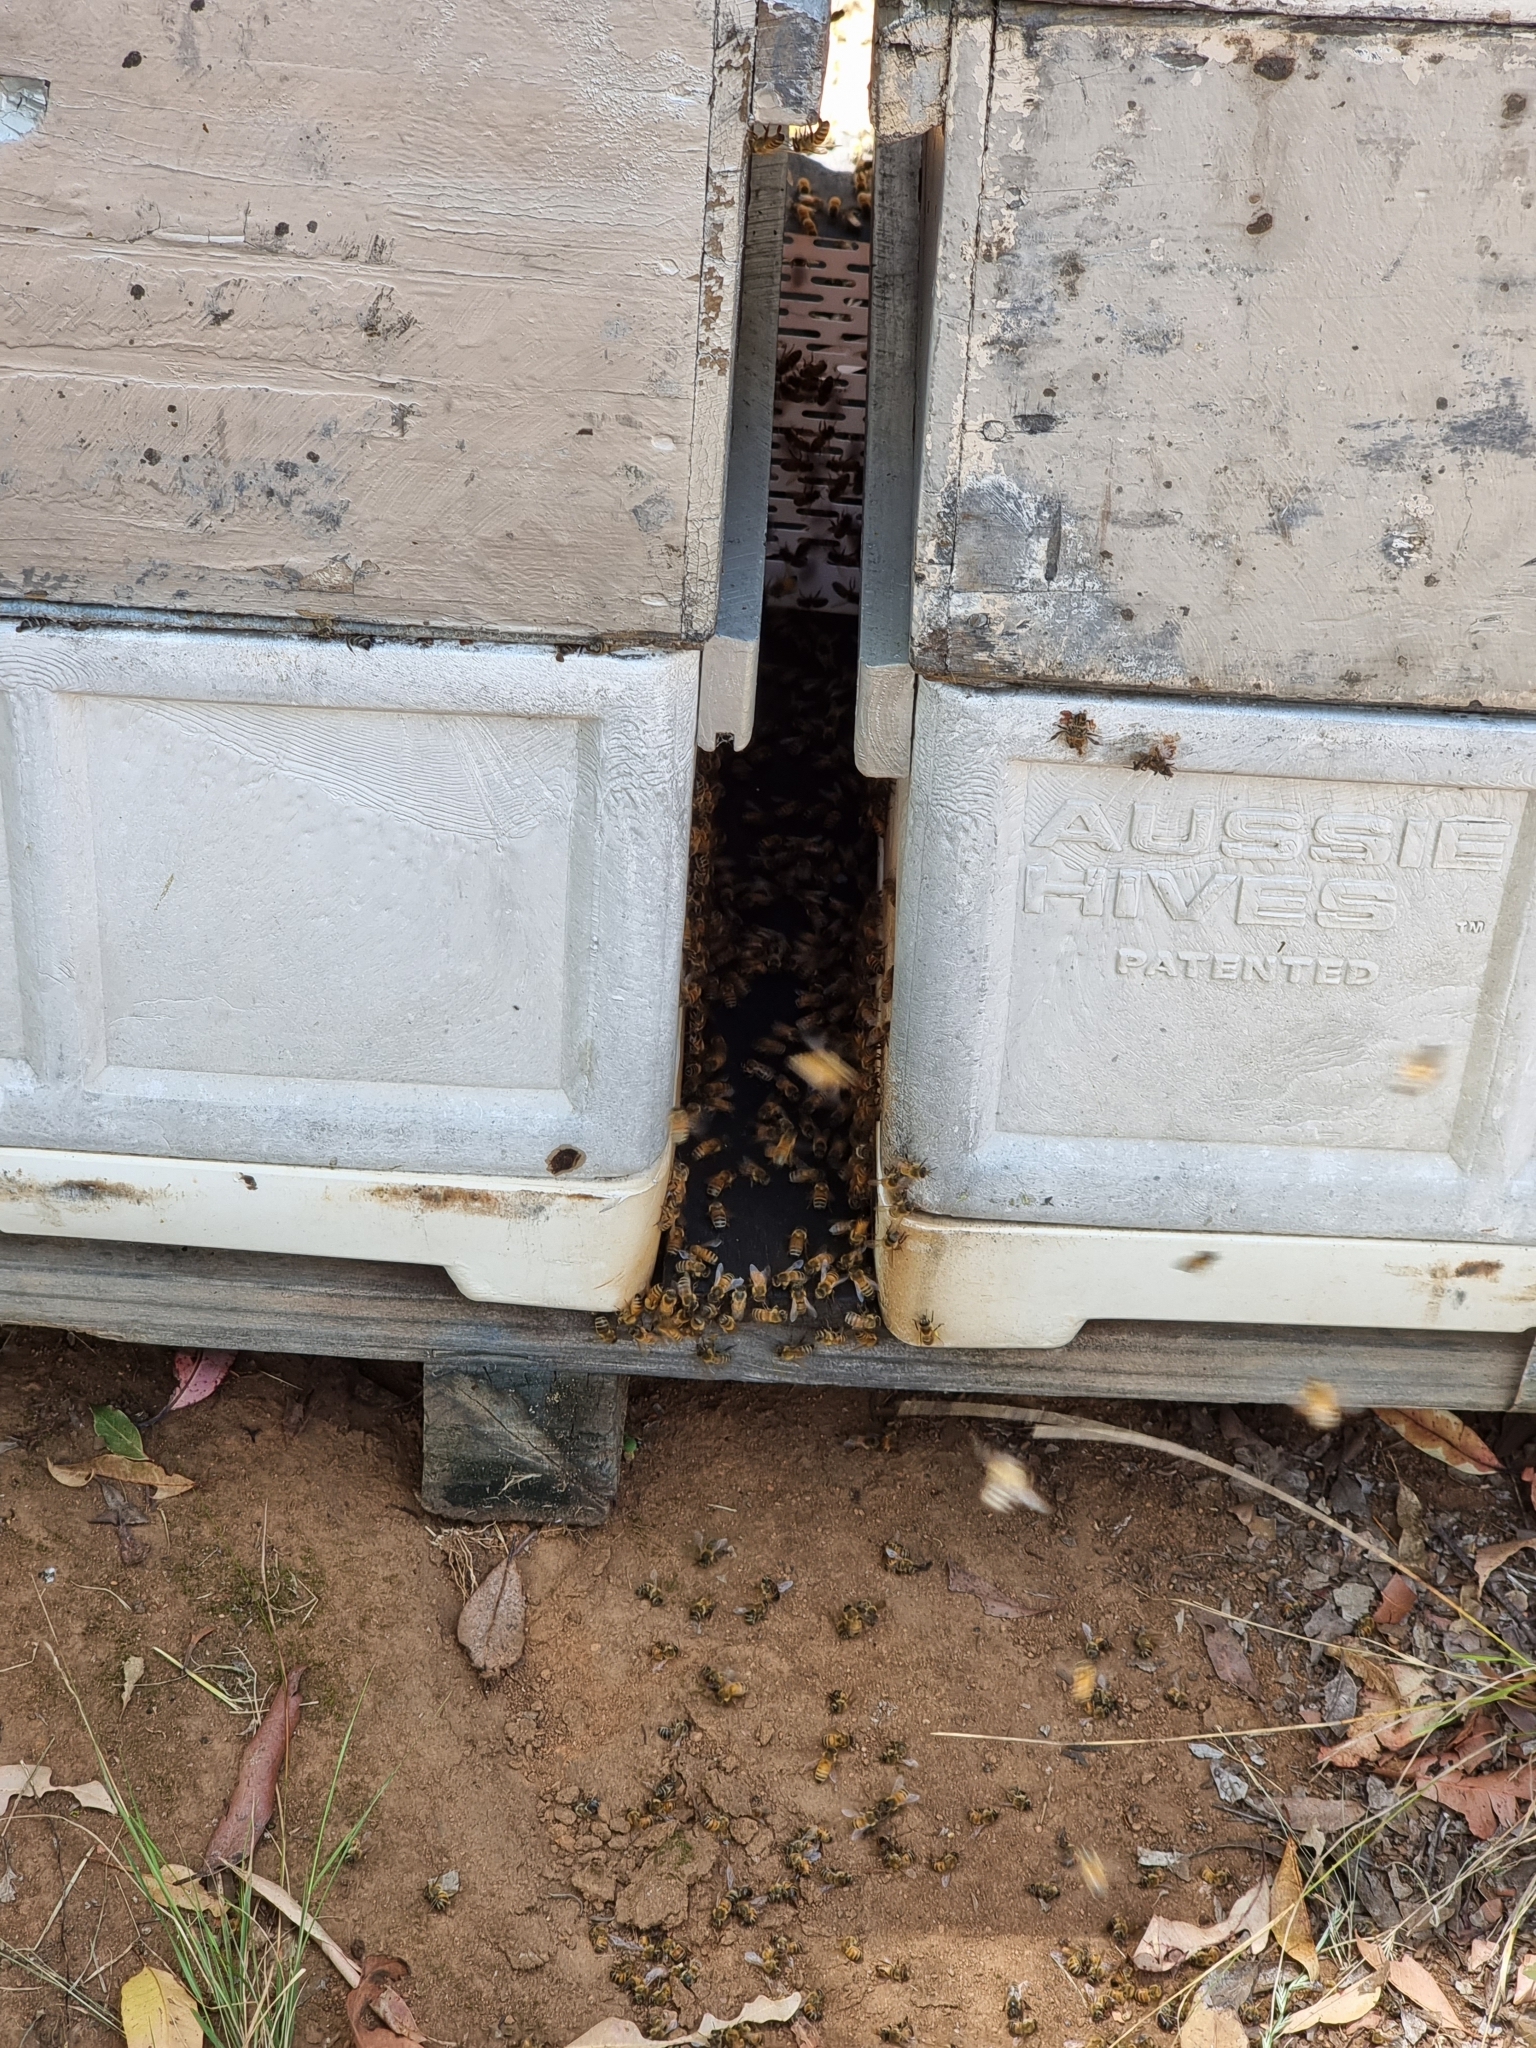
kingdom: Animalia
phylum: Arthropoda
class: Insecta
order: Hymenoptera
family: Apidae
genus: Apis
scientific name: Apis mellifera
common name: Honey bee
